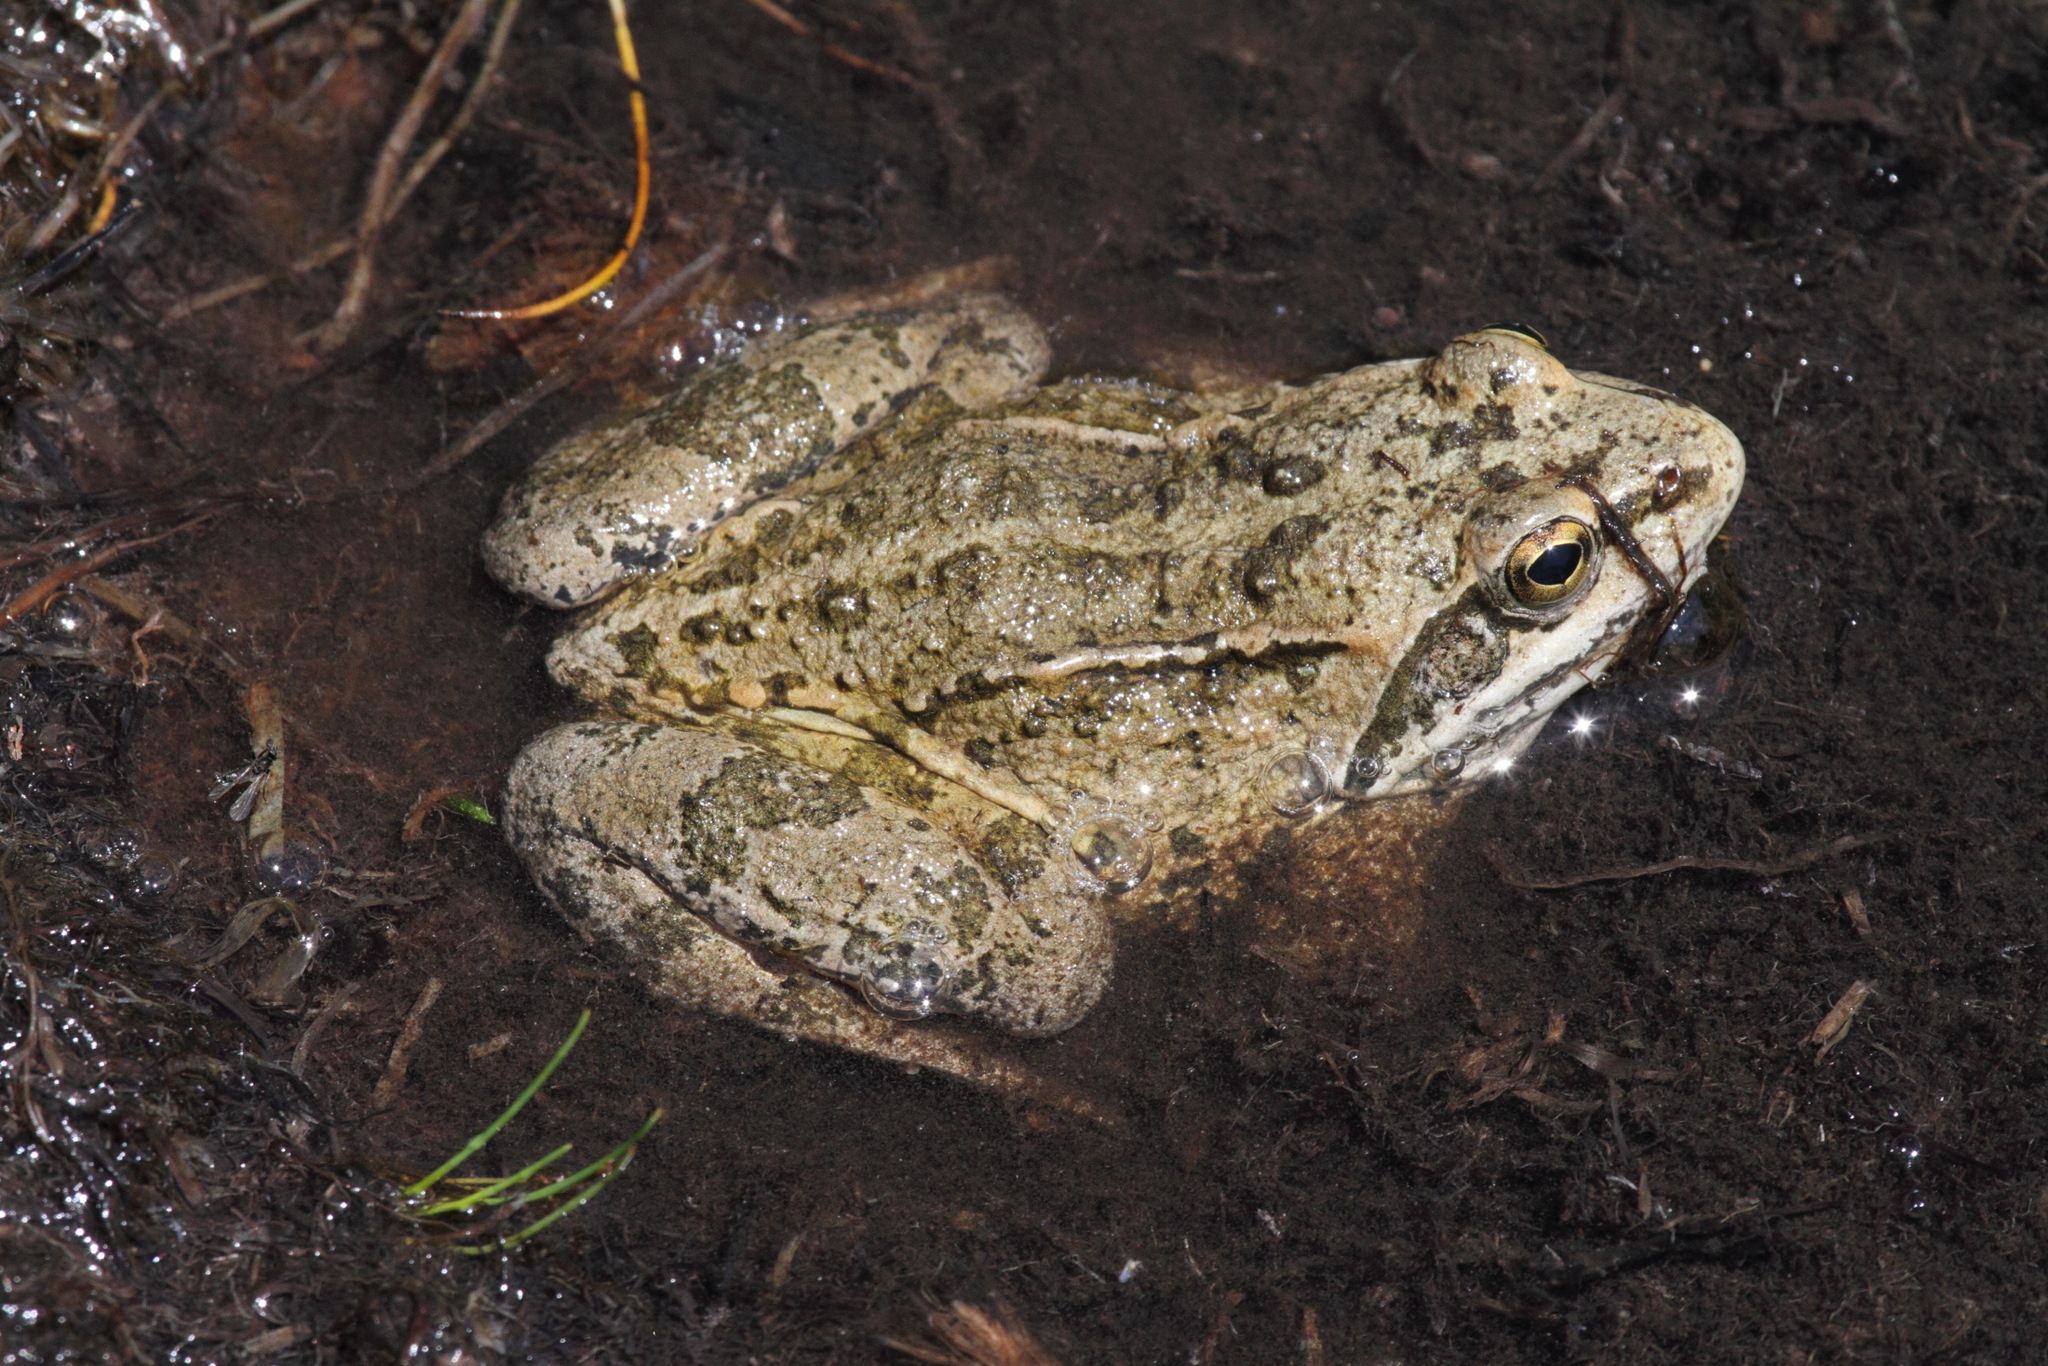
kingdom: Animalia
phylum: Chordata
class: Amphibia
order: Anura
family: Ranidae
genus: Rana
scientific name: Rana macrocnemis
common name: Banded frog
